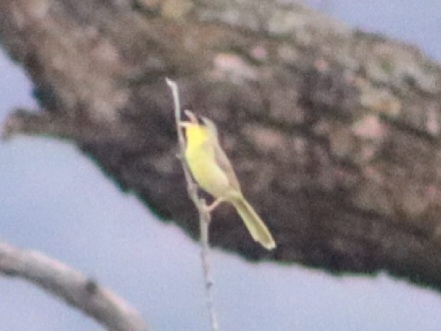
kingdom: Animalia
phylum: Chordata
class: Aves
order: Passeriformes
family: Parulidae
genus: Geothlypis
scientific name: Geothlypis poliocephala
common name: Gray-crowned yellowthroat
